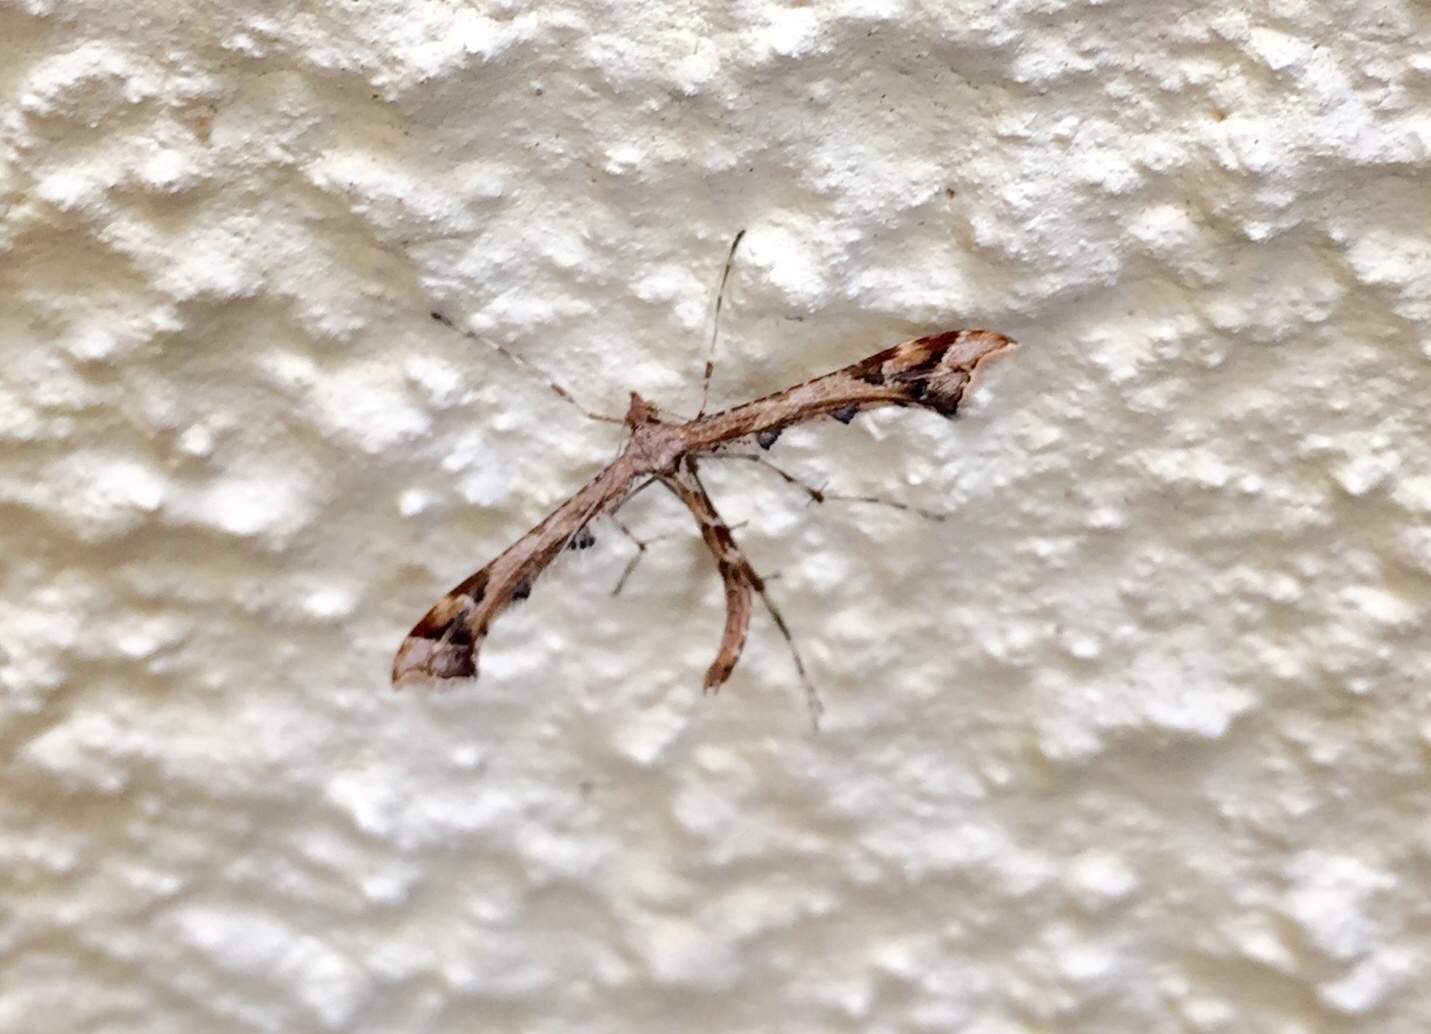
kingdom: Animalia
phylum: Arthropoda
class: Insecta
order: Lepidoptera
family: Pterophoridae
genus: Amblyptilia
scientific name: Amblyptilia acanthadactyla
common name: Beautiful plume
